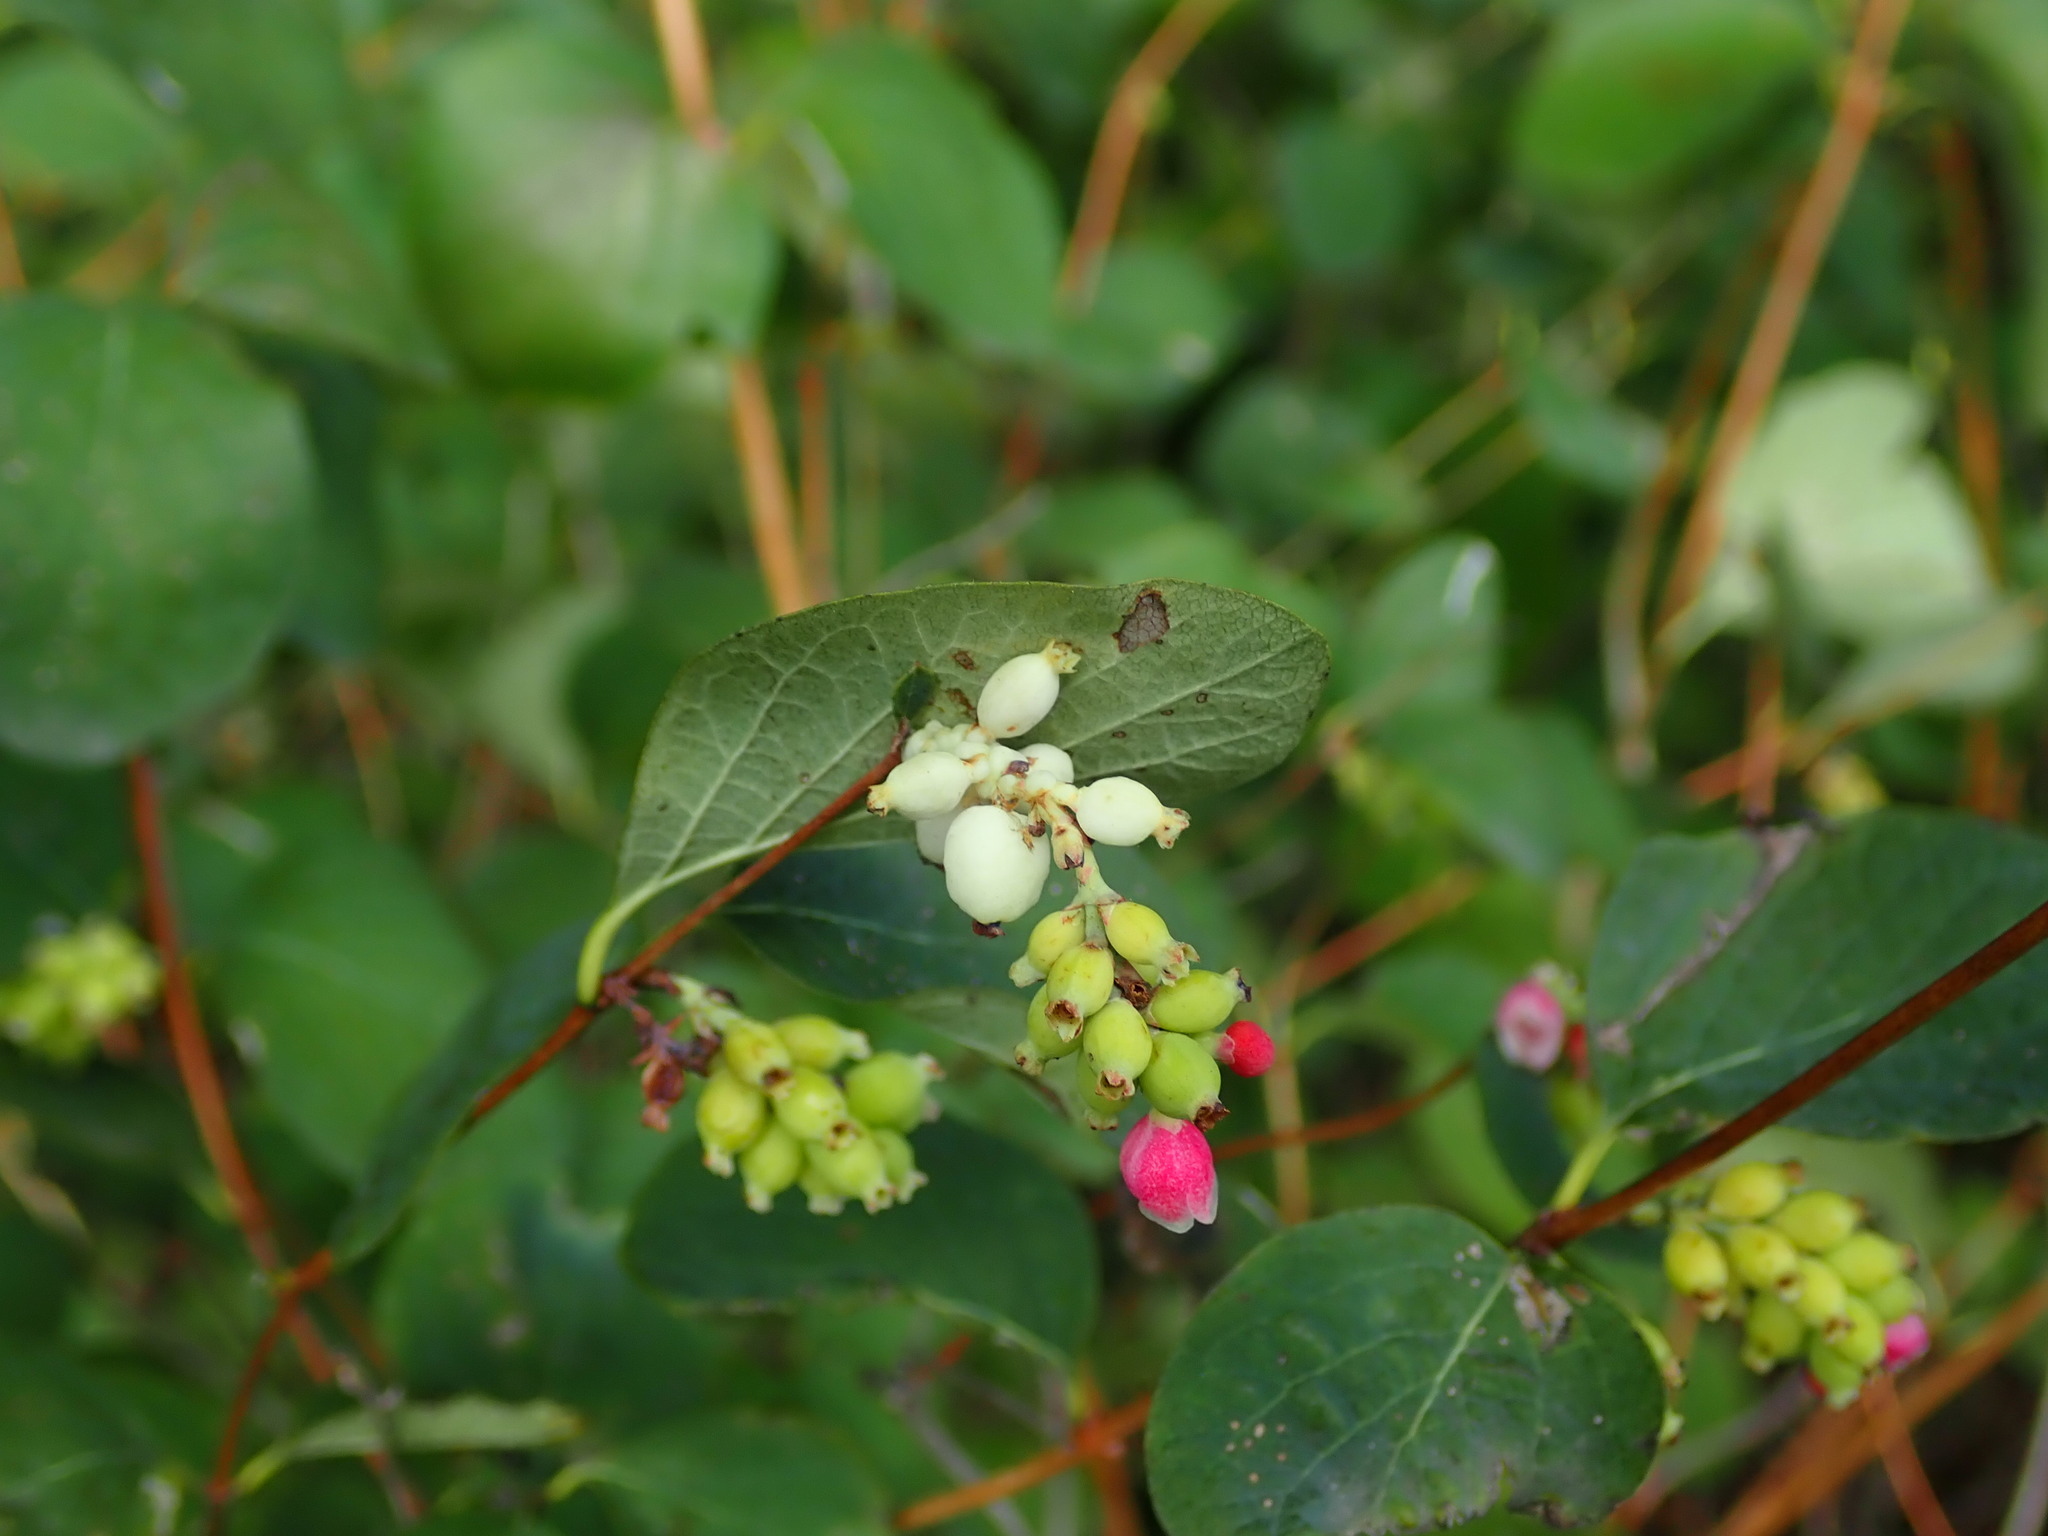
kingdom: Plantae
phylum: Tracheophyta
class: Magnoliopsida
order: Dipsacales
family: Caprifoliaceae
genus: Symphoricarpos
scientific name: Symphoricarpos albus
